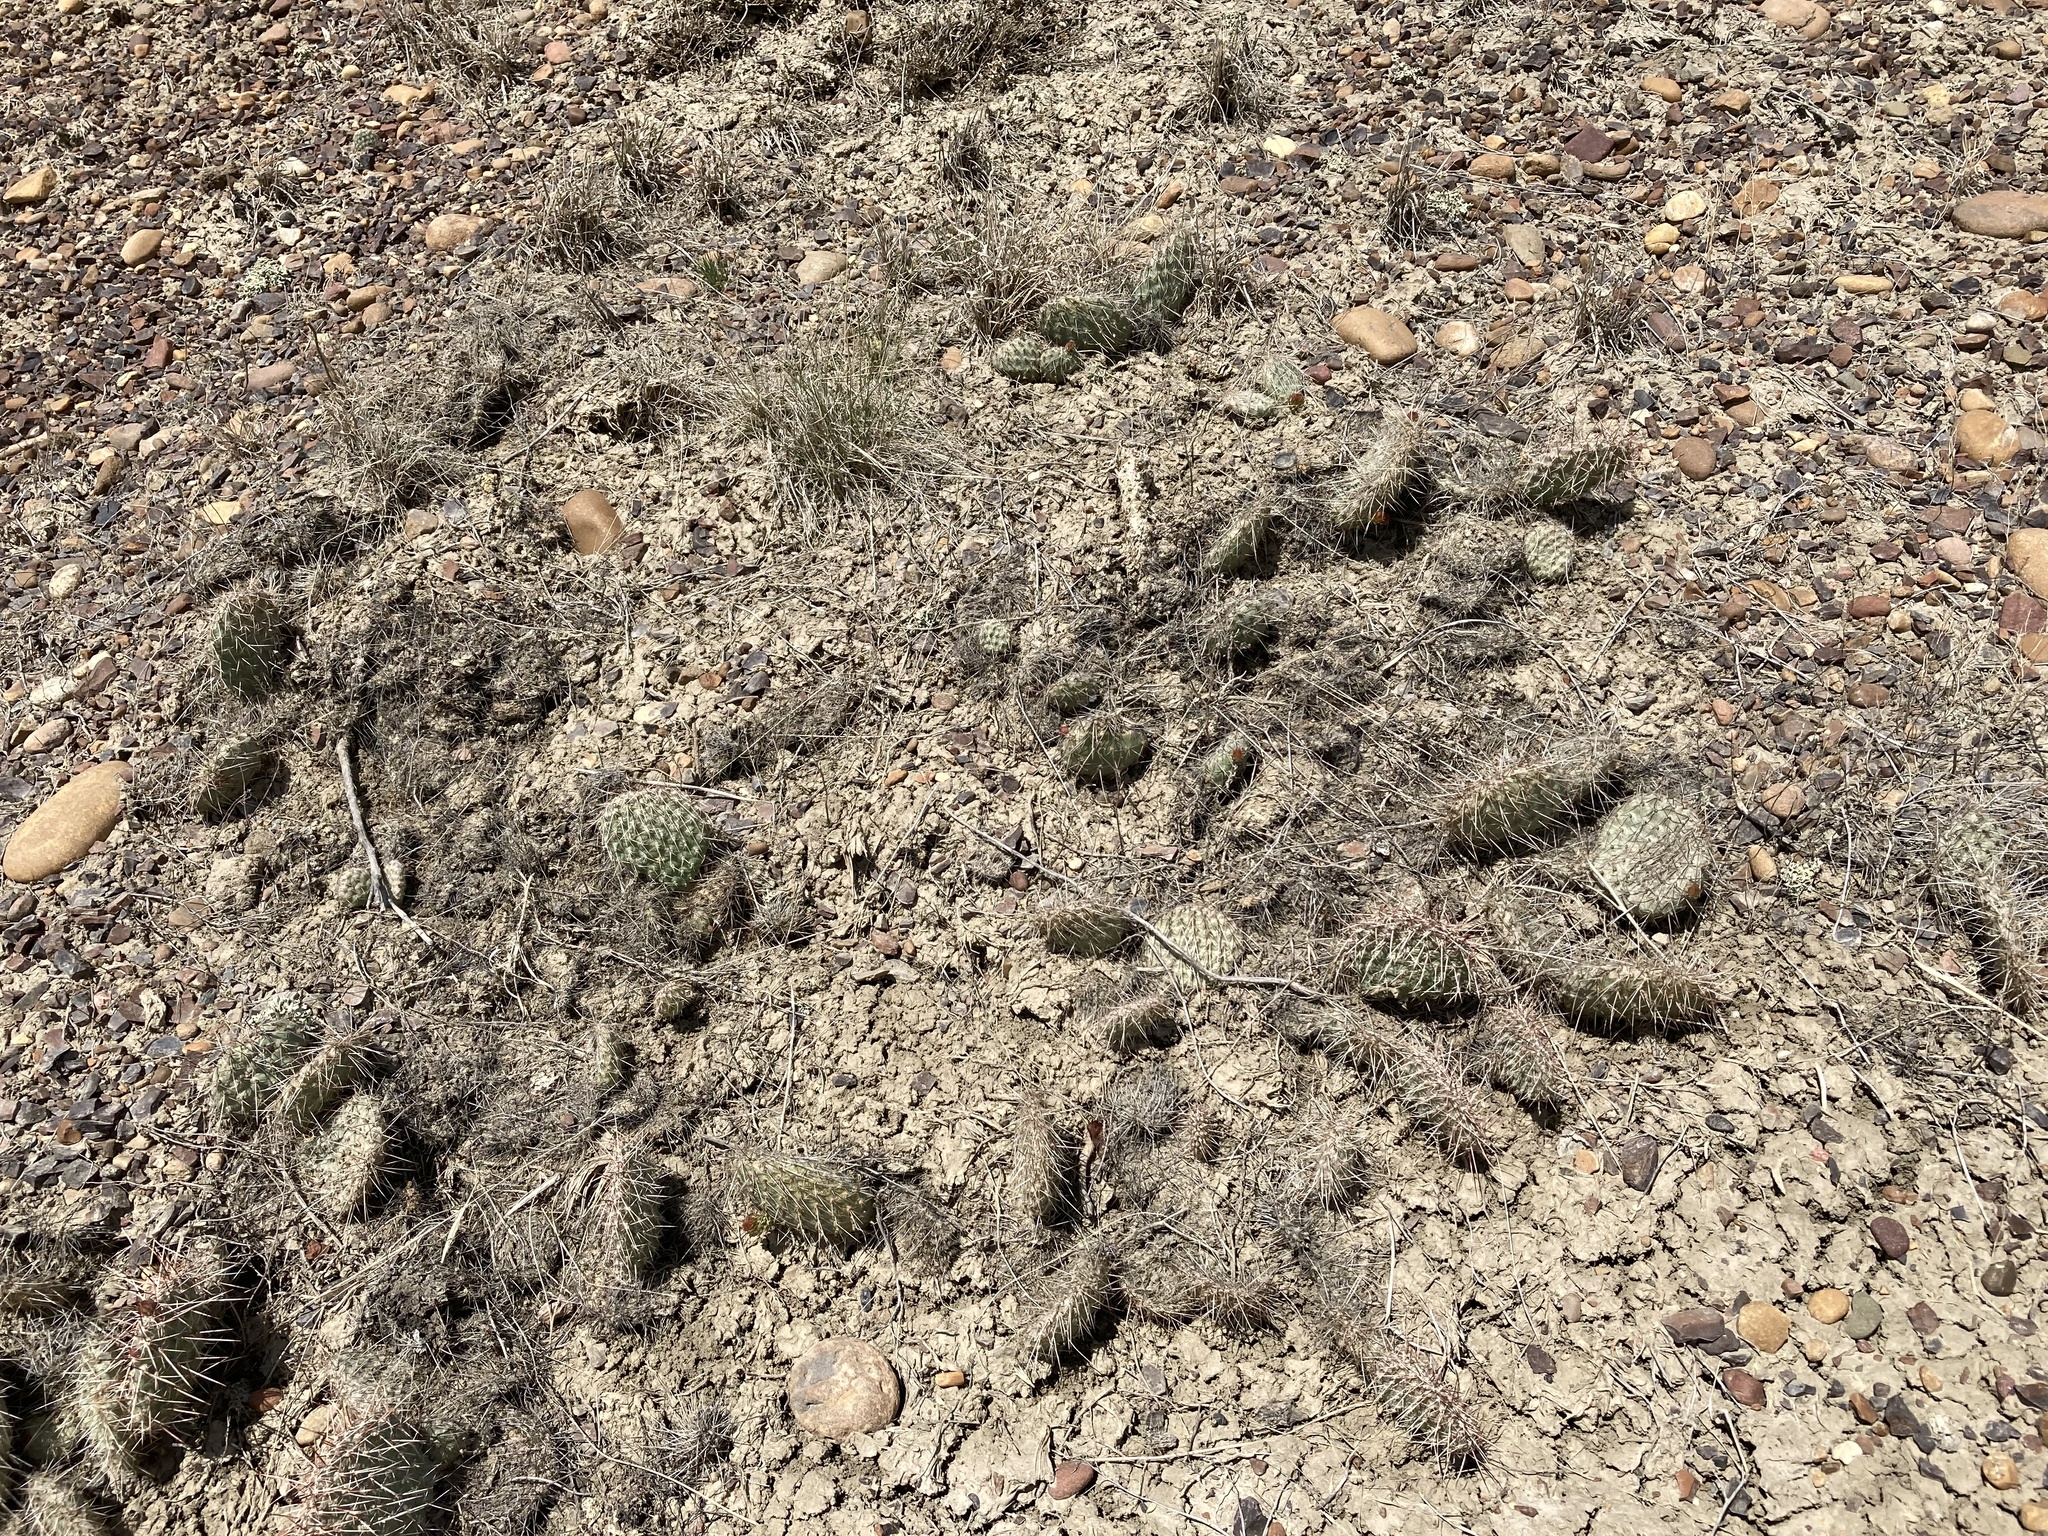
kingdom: Plantae
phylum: Tracheophyta
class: Magnoliopsida
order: Caryophyllales
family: Cactaceae
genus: Opuntia
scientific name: Opuntia polyacantha
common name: Plains prickly-pear
